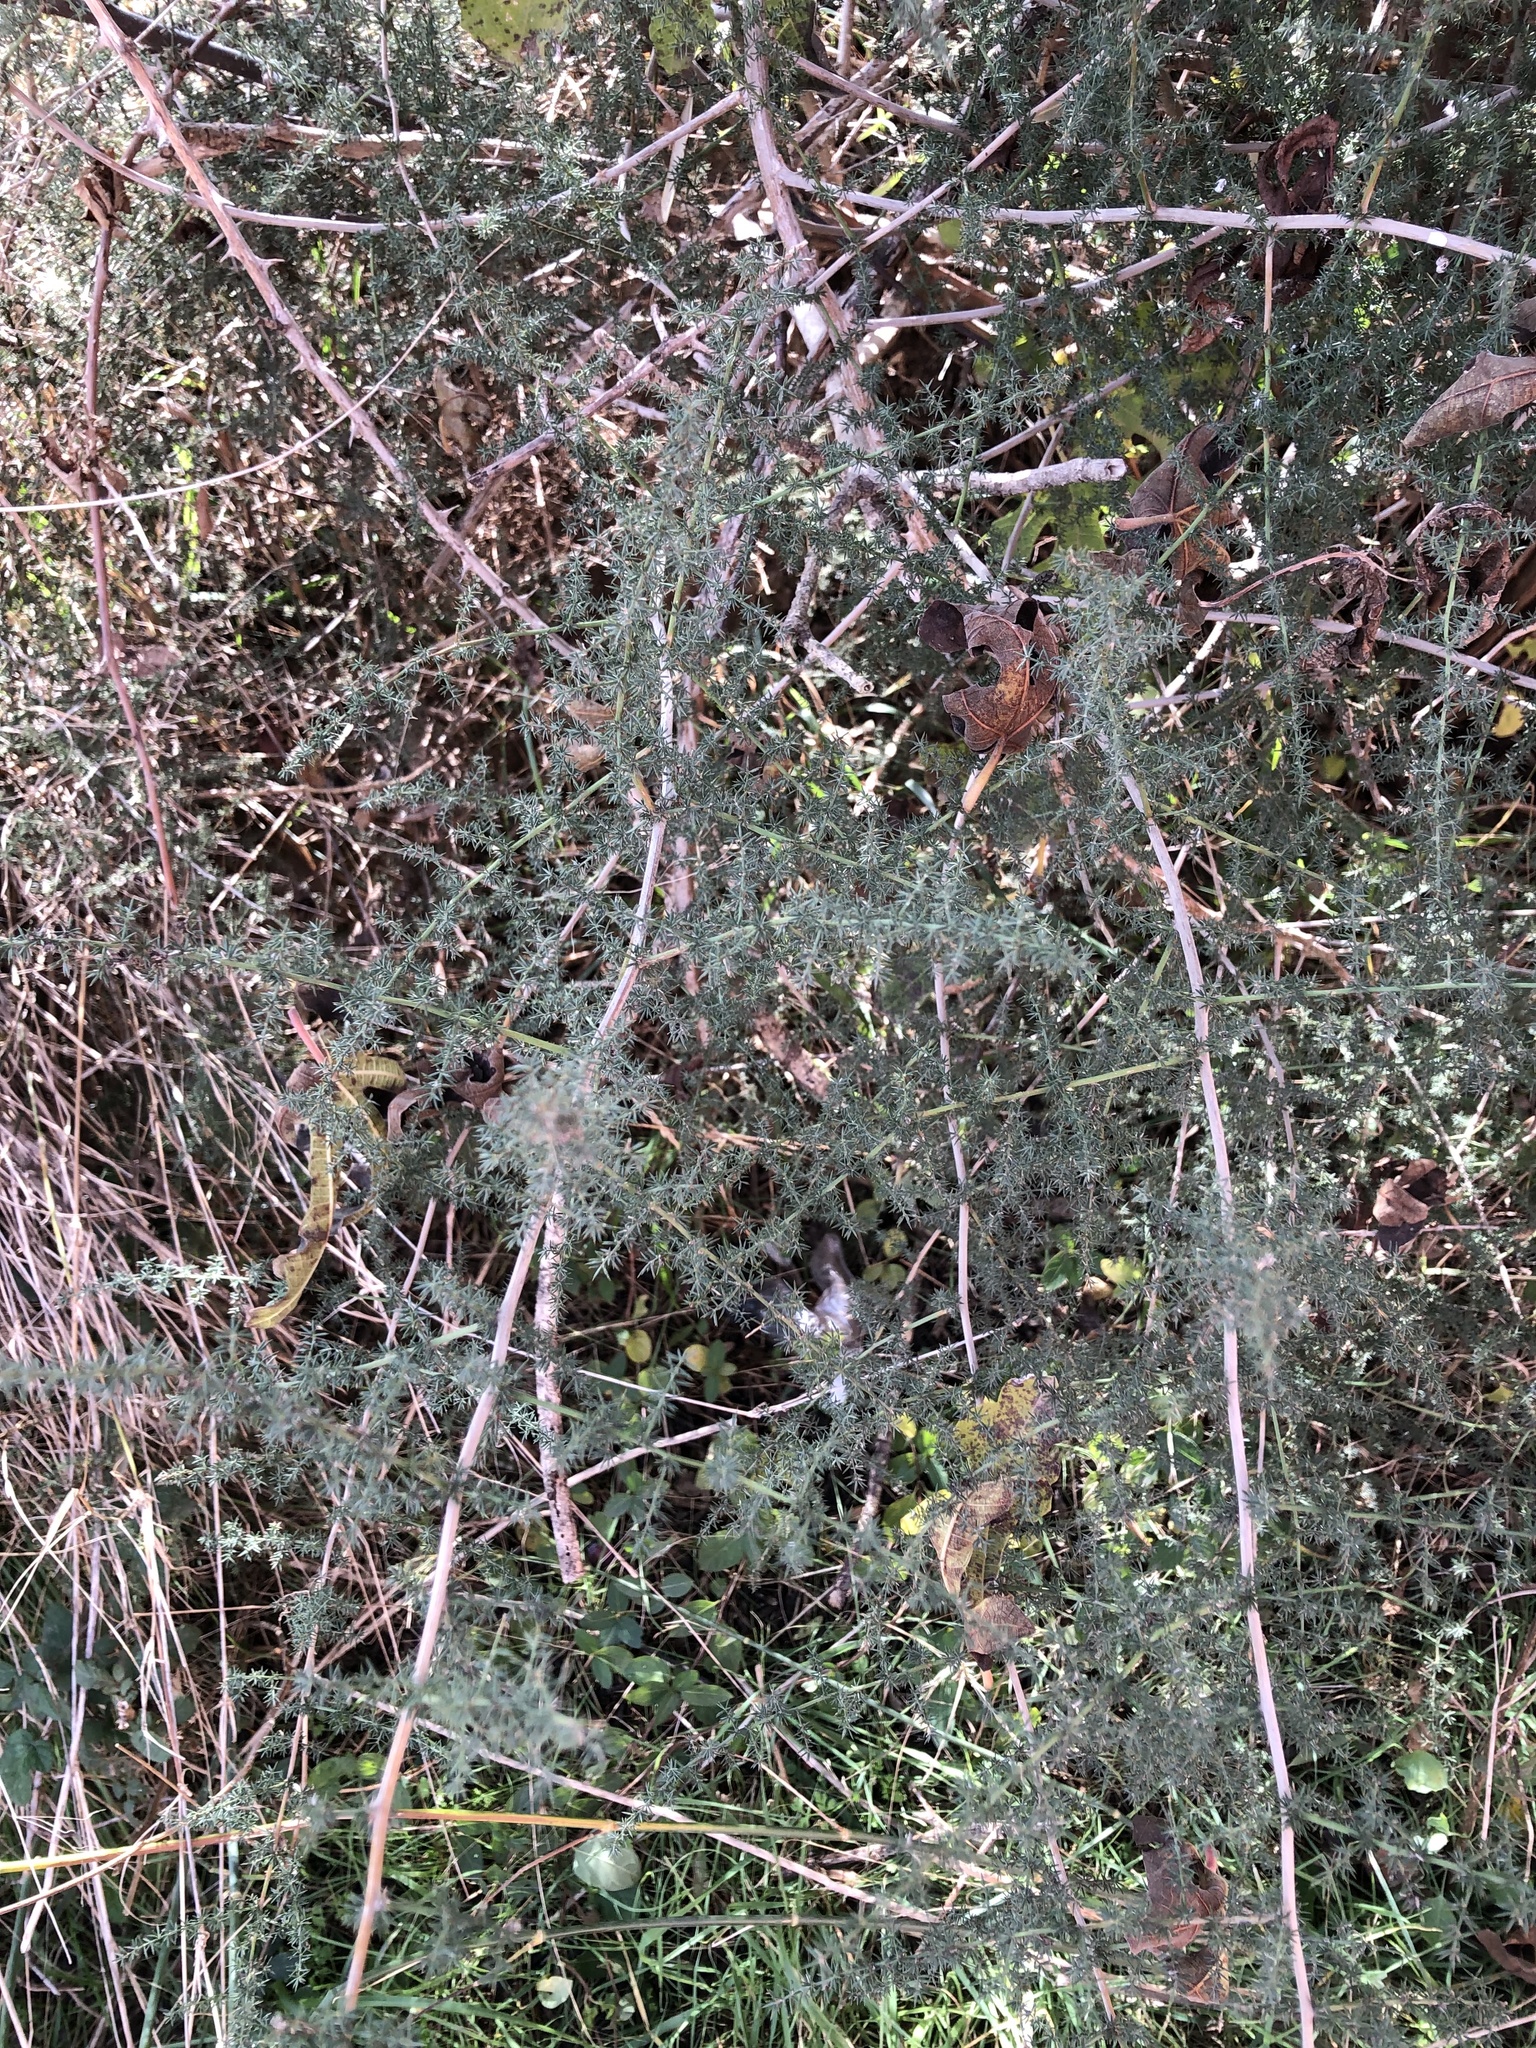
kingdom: Plantae
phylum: Tracheophyta
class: Liliopsida
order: Asparagales
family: Asparagaceae
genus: Asparagus
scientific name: Asparagus acutifolius
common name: Wild asparagus
